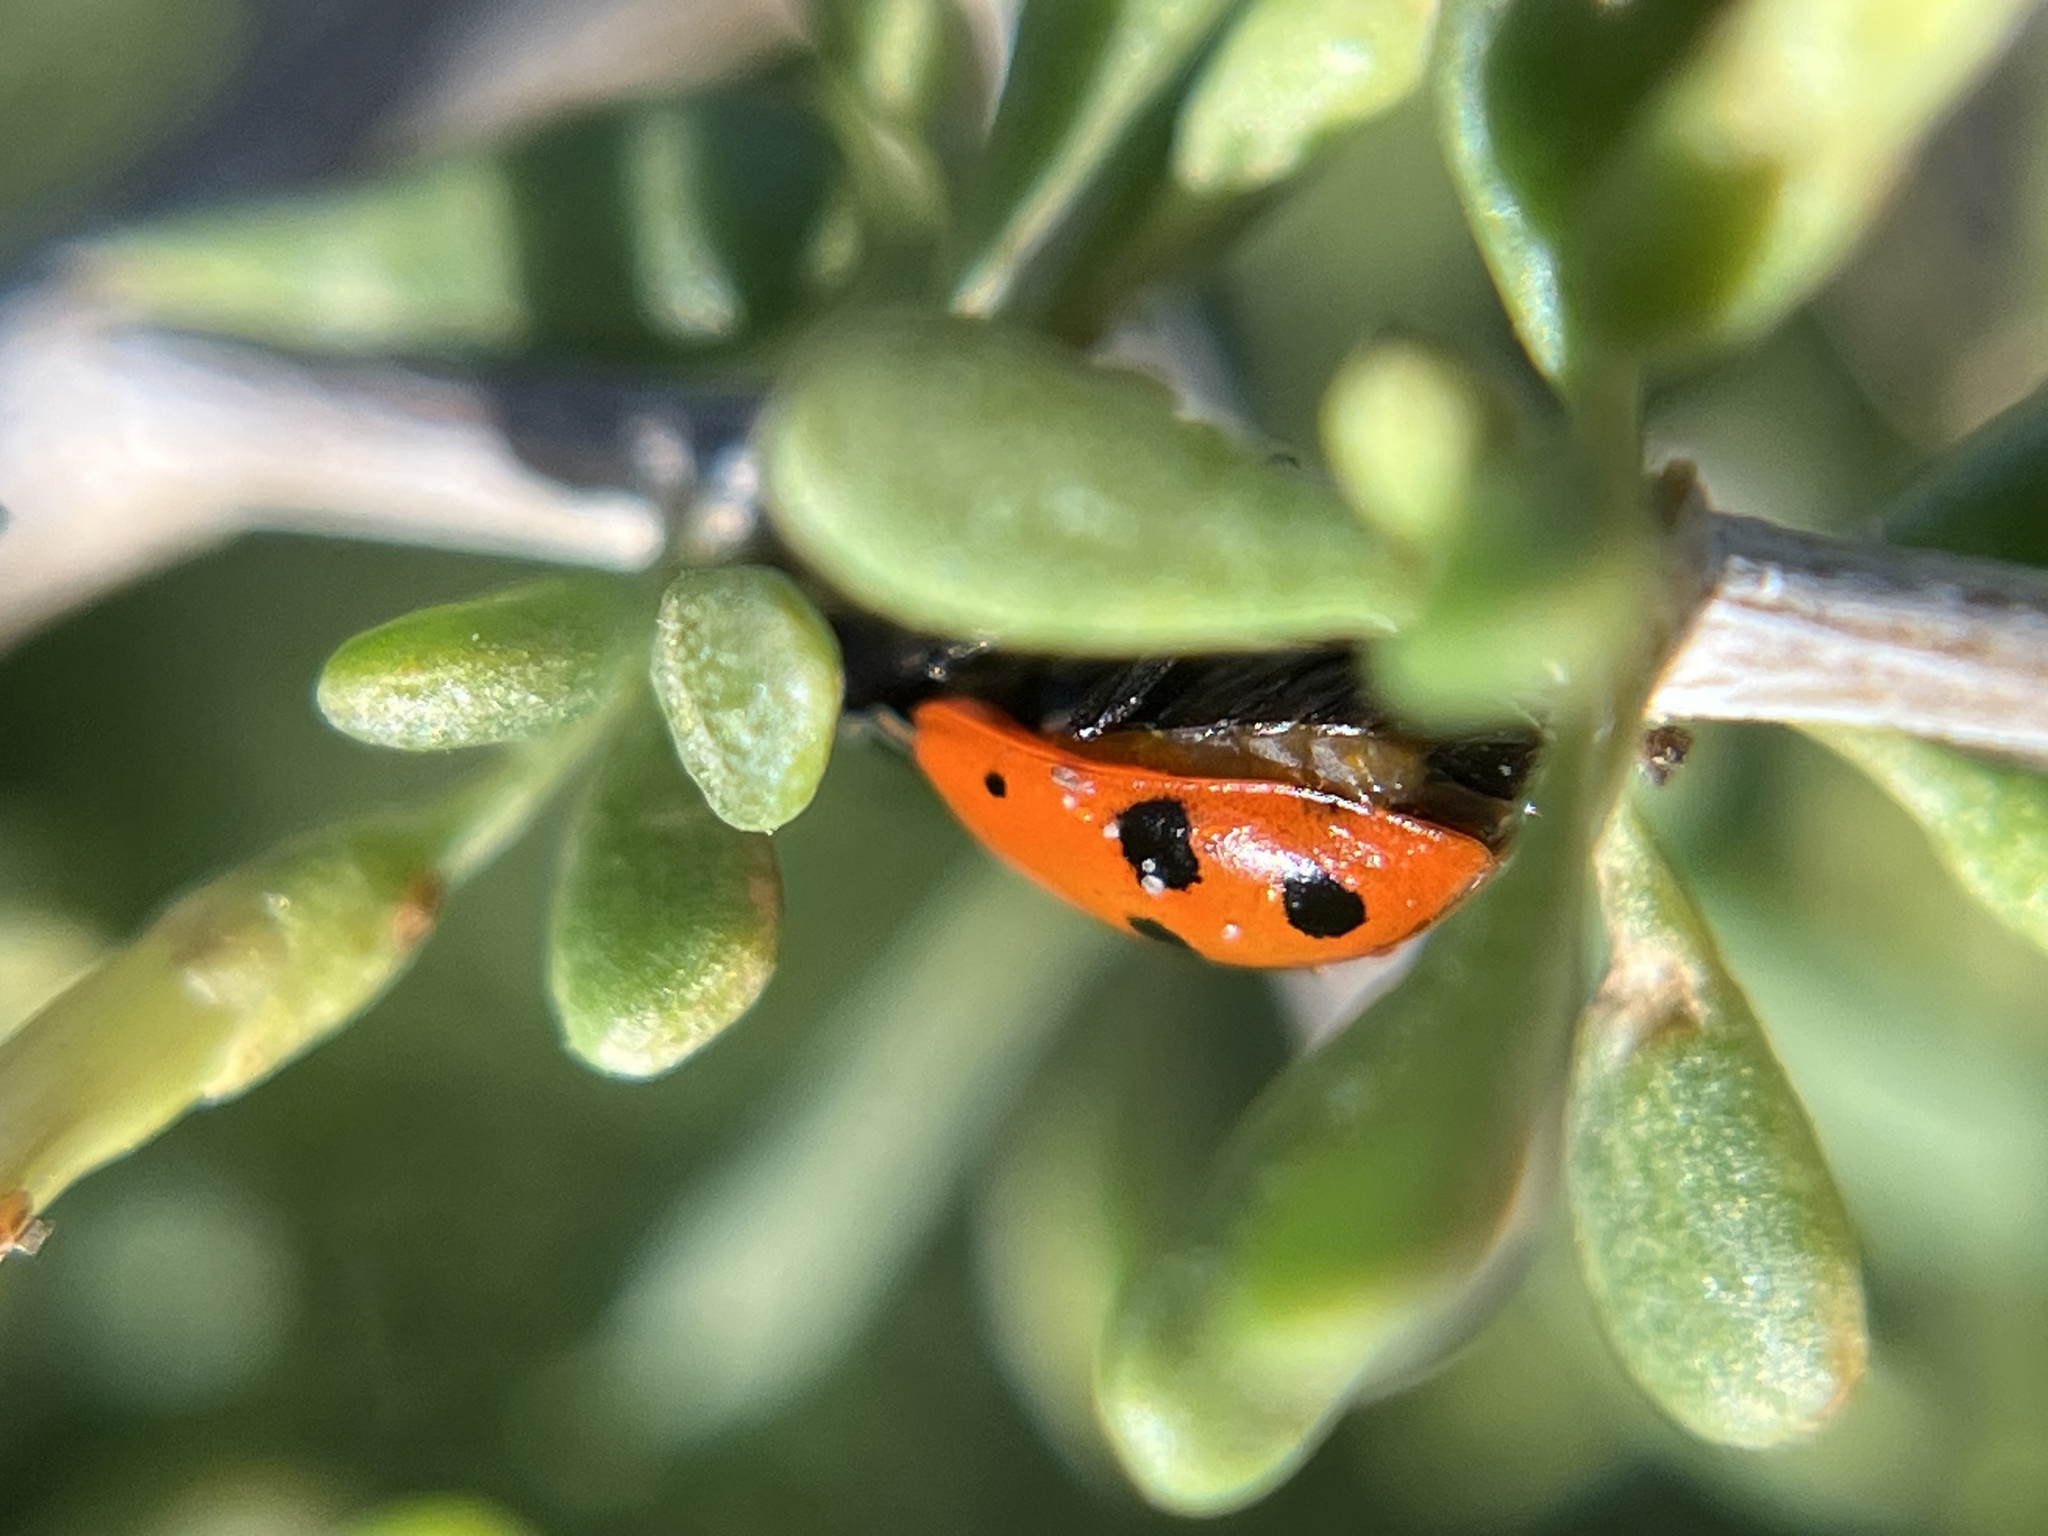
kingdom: Animalia
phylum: Arthropoda
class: Insecta
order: Coleoptera
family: Coccinellidae
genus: Hippodamia
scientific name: Hippodamia convergens
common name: Convergent lady beetle
